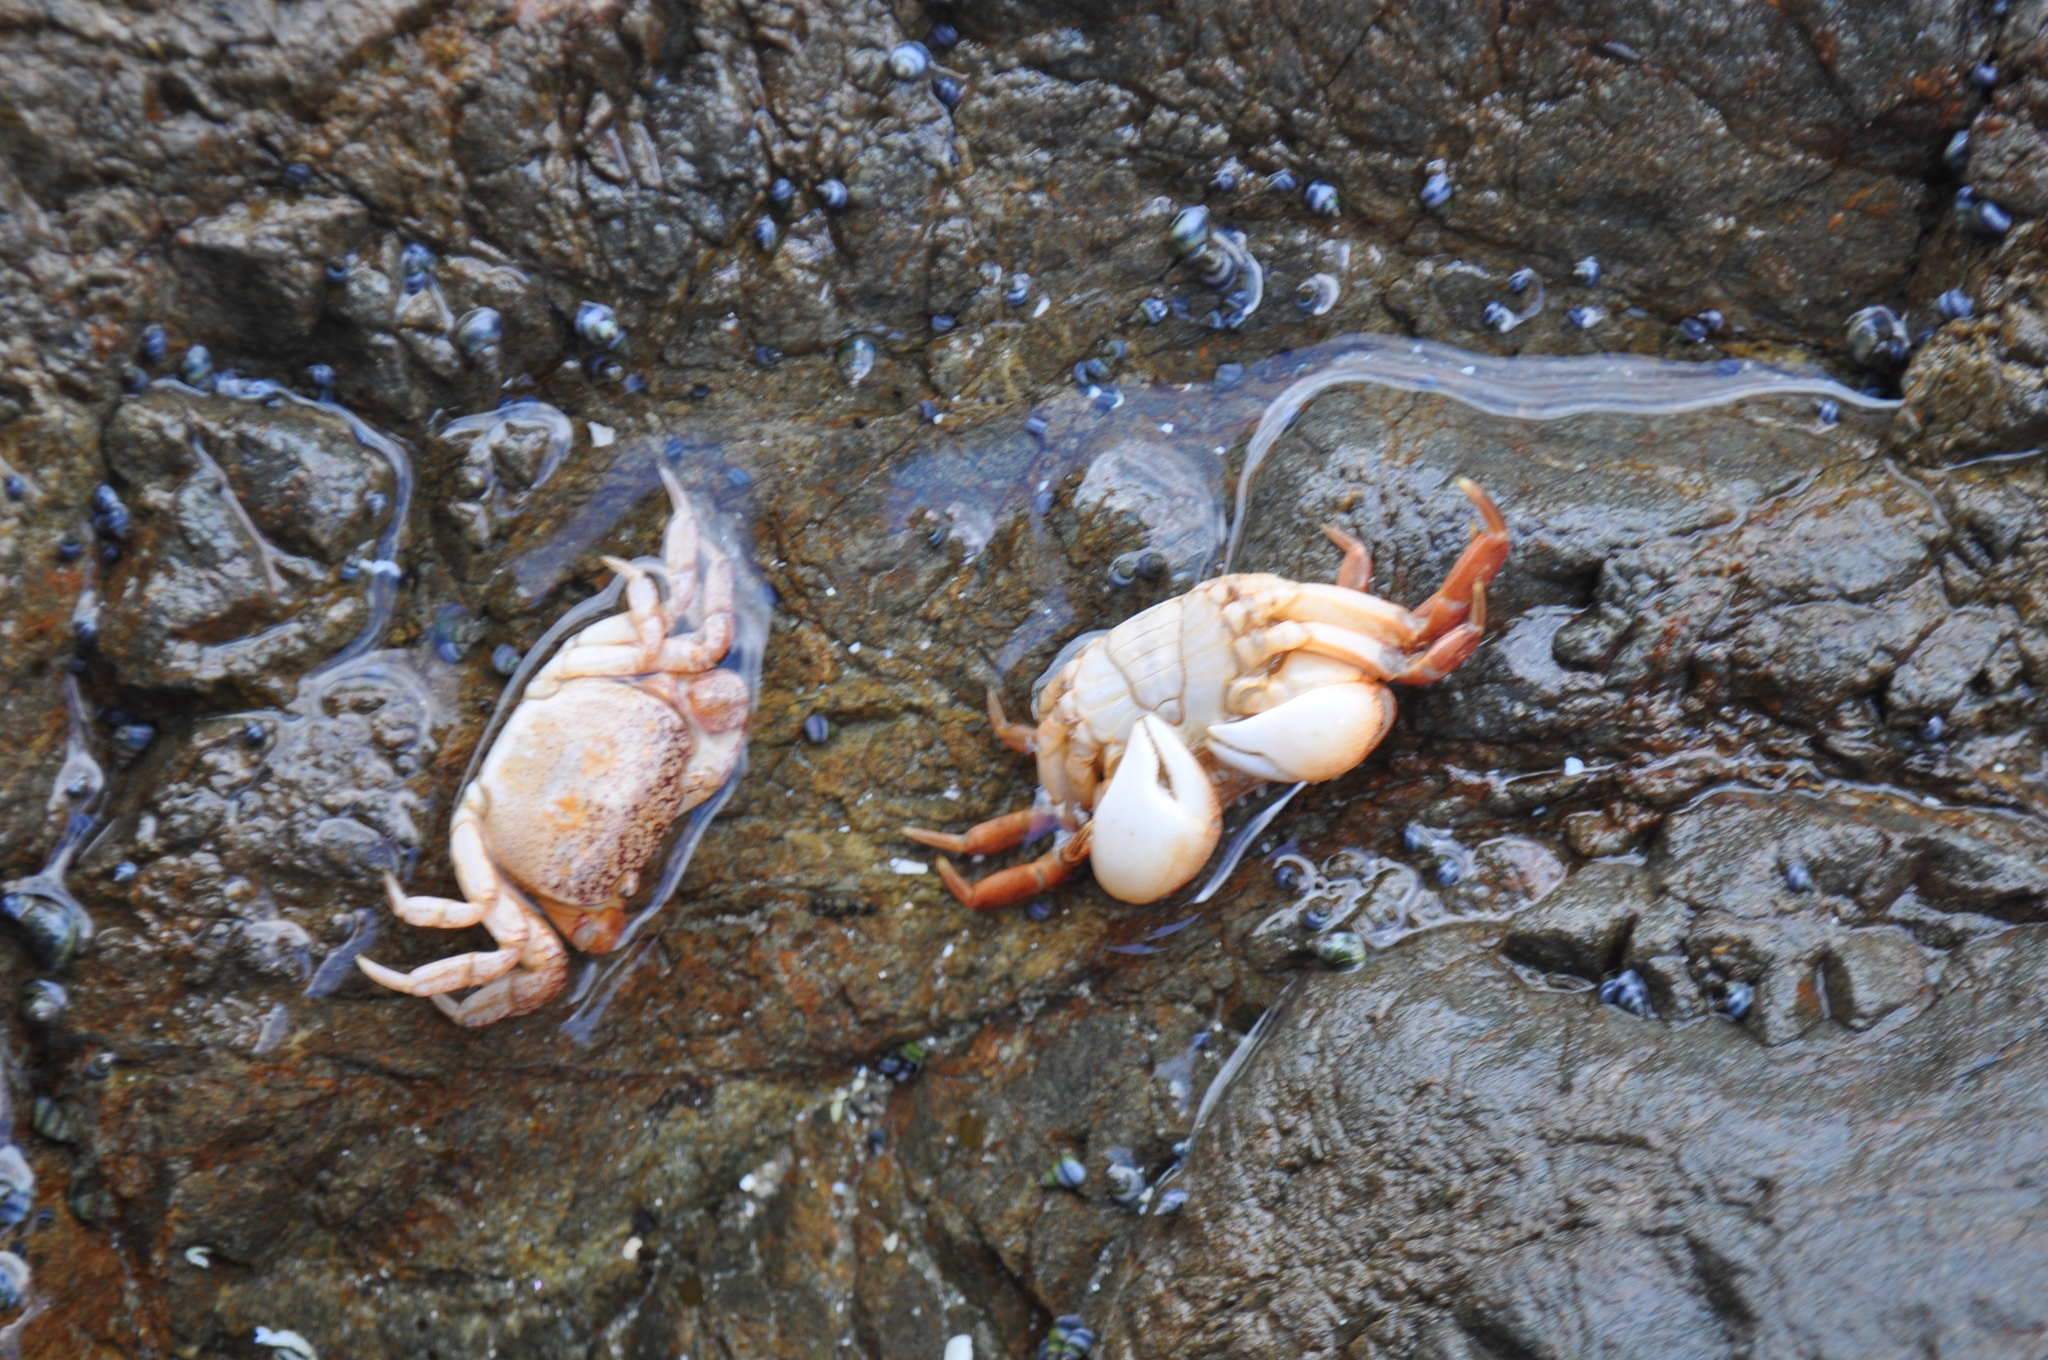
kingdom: Animalia
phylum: Arthropoda
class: Malacostraca
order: Decapoda
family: Varunidae
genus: Cyclograpsus
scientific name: Cyclograpsus lavauxi
